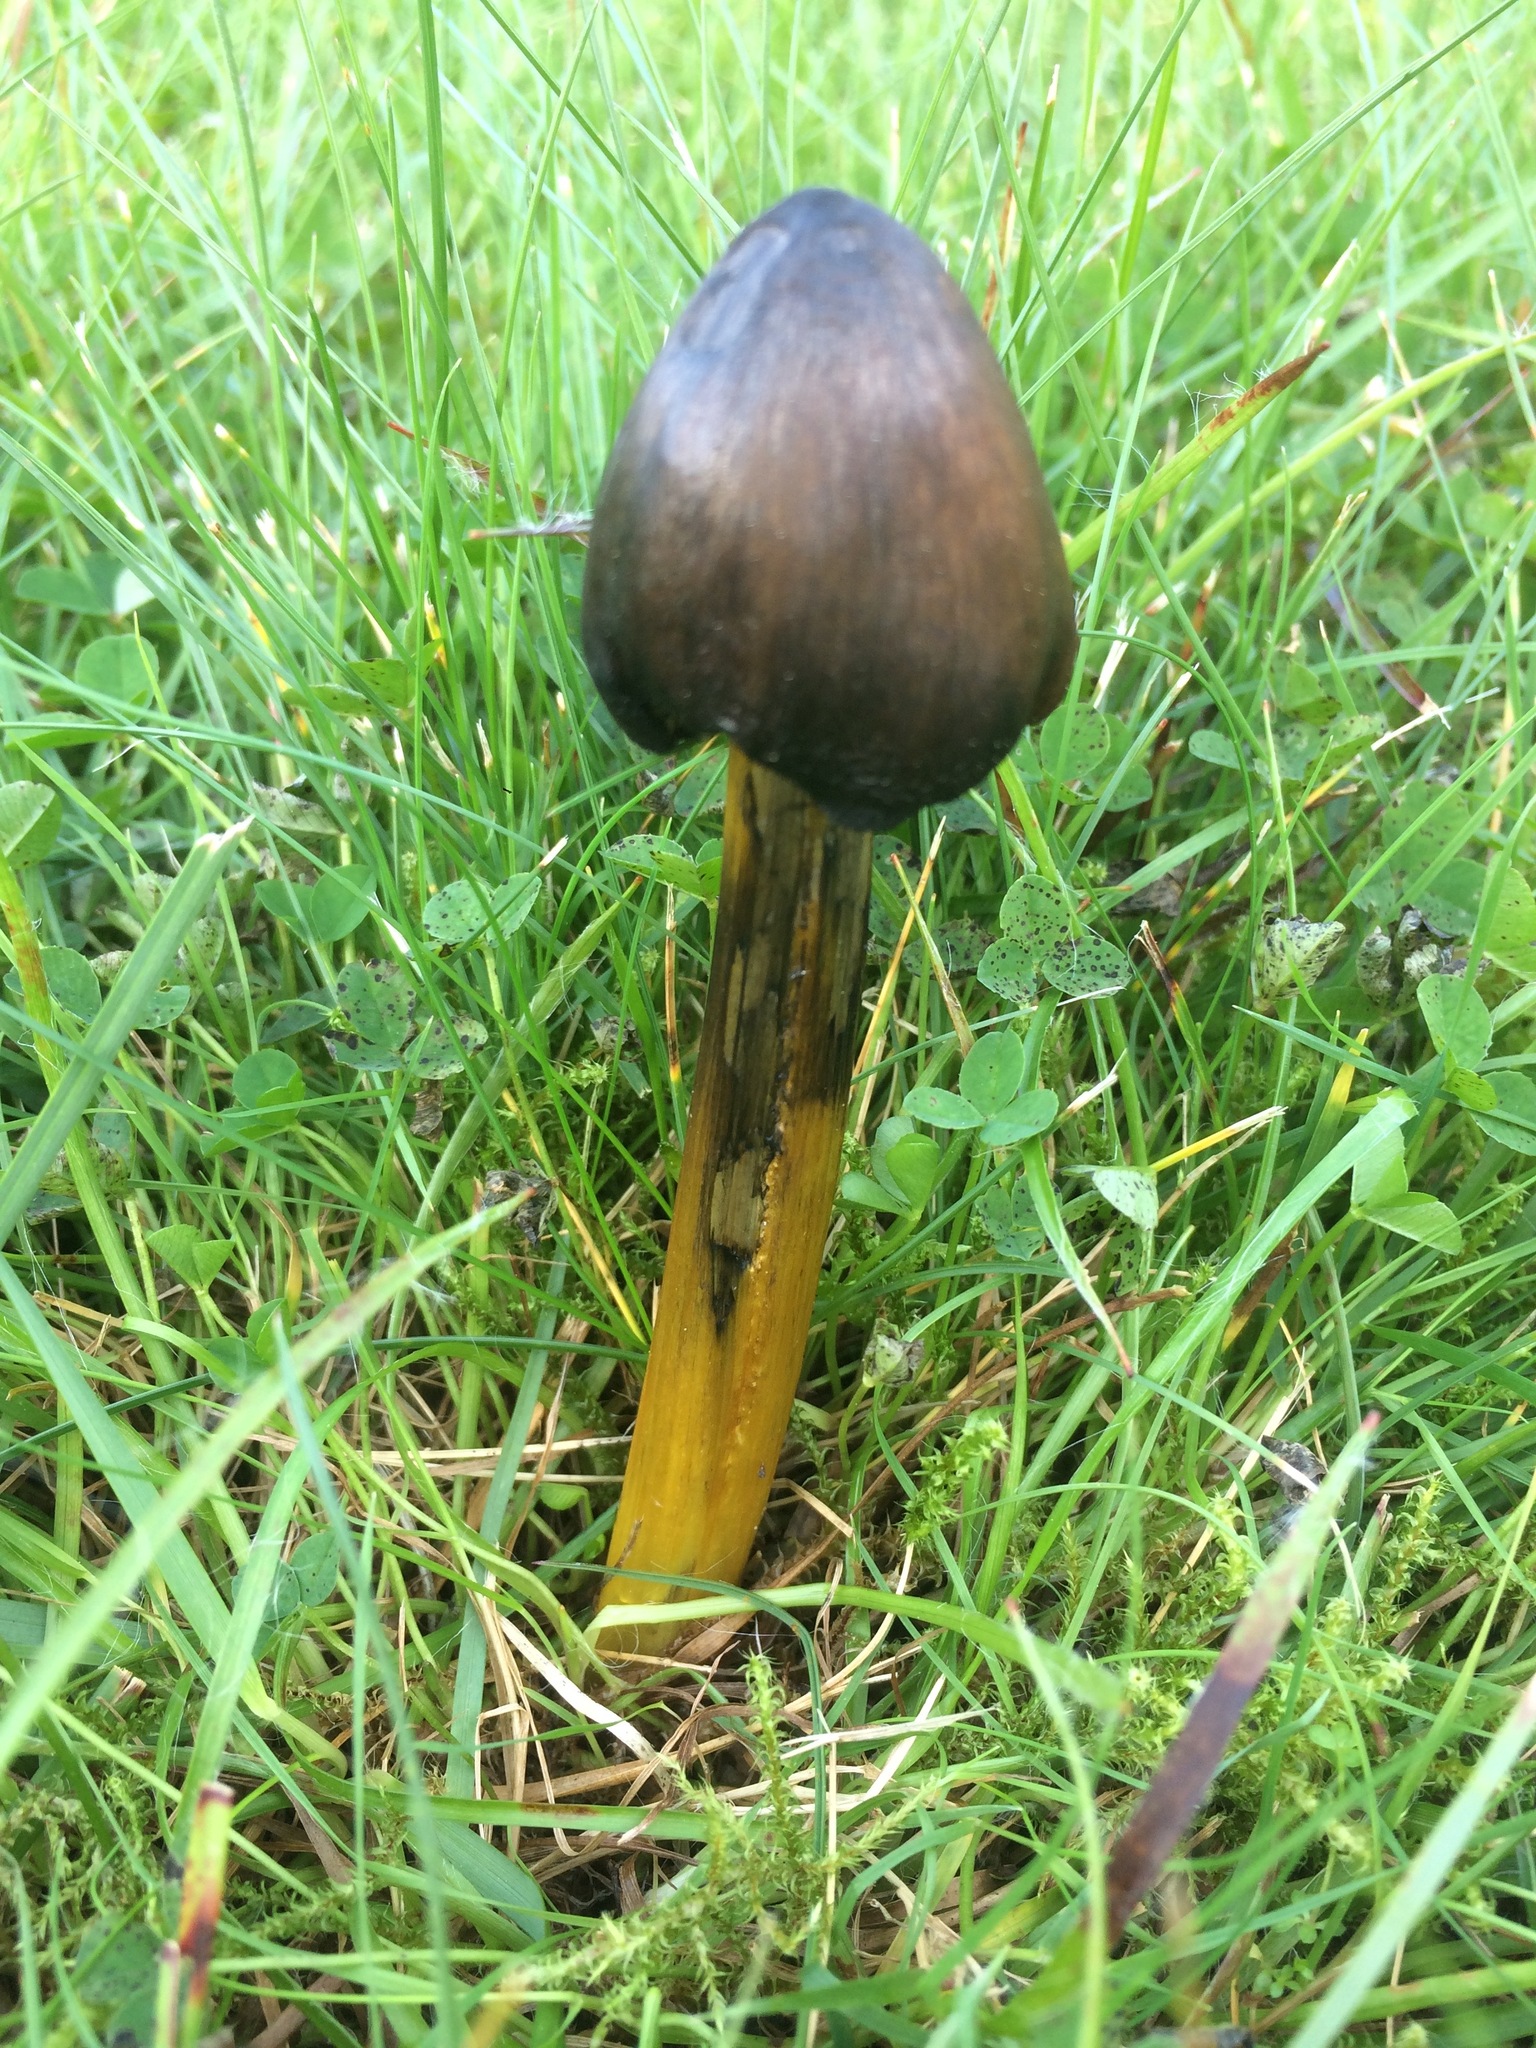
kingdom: Fungi
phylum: Basidiomycota
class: Agaricomycetes
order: Agaricales
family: Hygrophoraceae
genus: Hygrocybe
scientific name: Hygrocybe conica
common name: Blackening wax-cap
